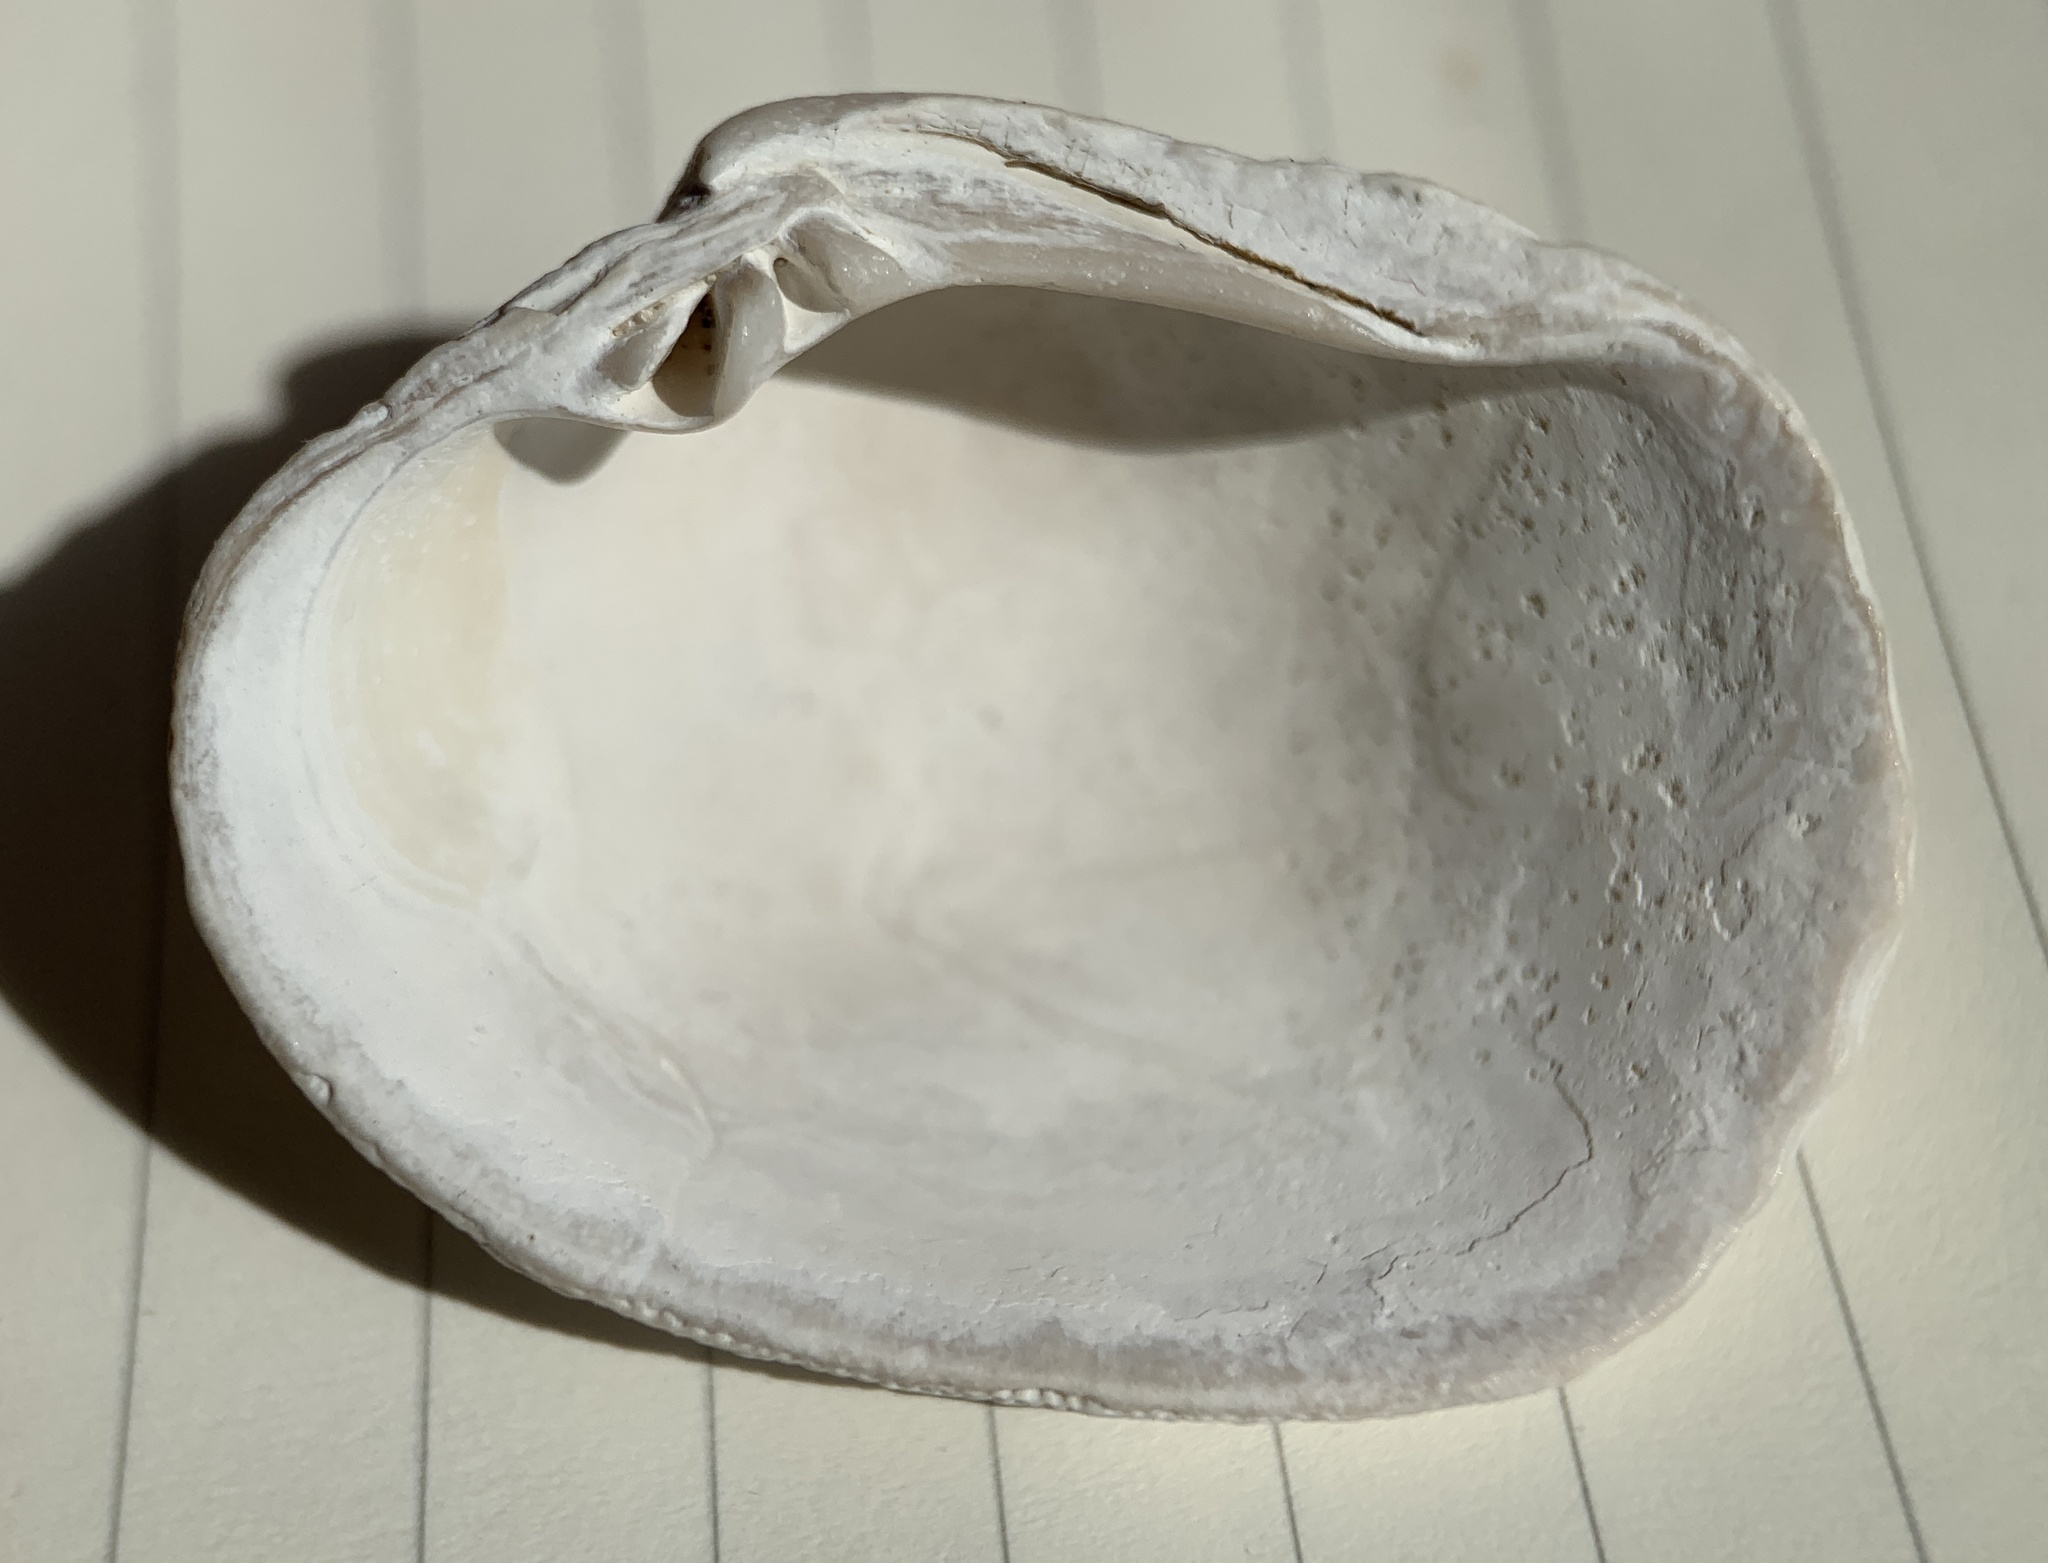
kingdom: Animalia
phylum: Mollusca
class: Bivalvia
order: Venerida
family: Veneridae
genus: Irusella
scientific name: Irusella lamellifera
